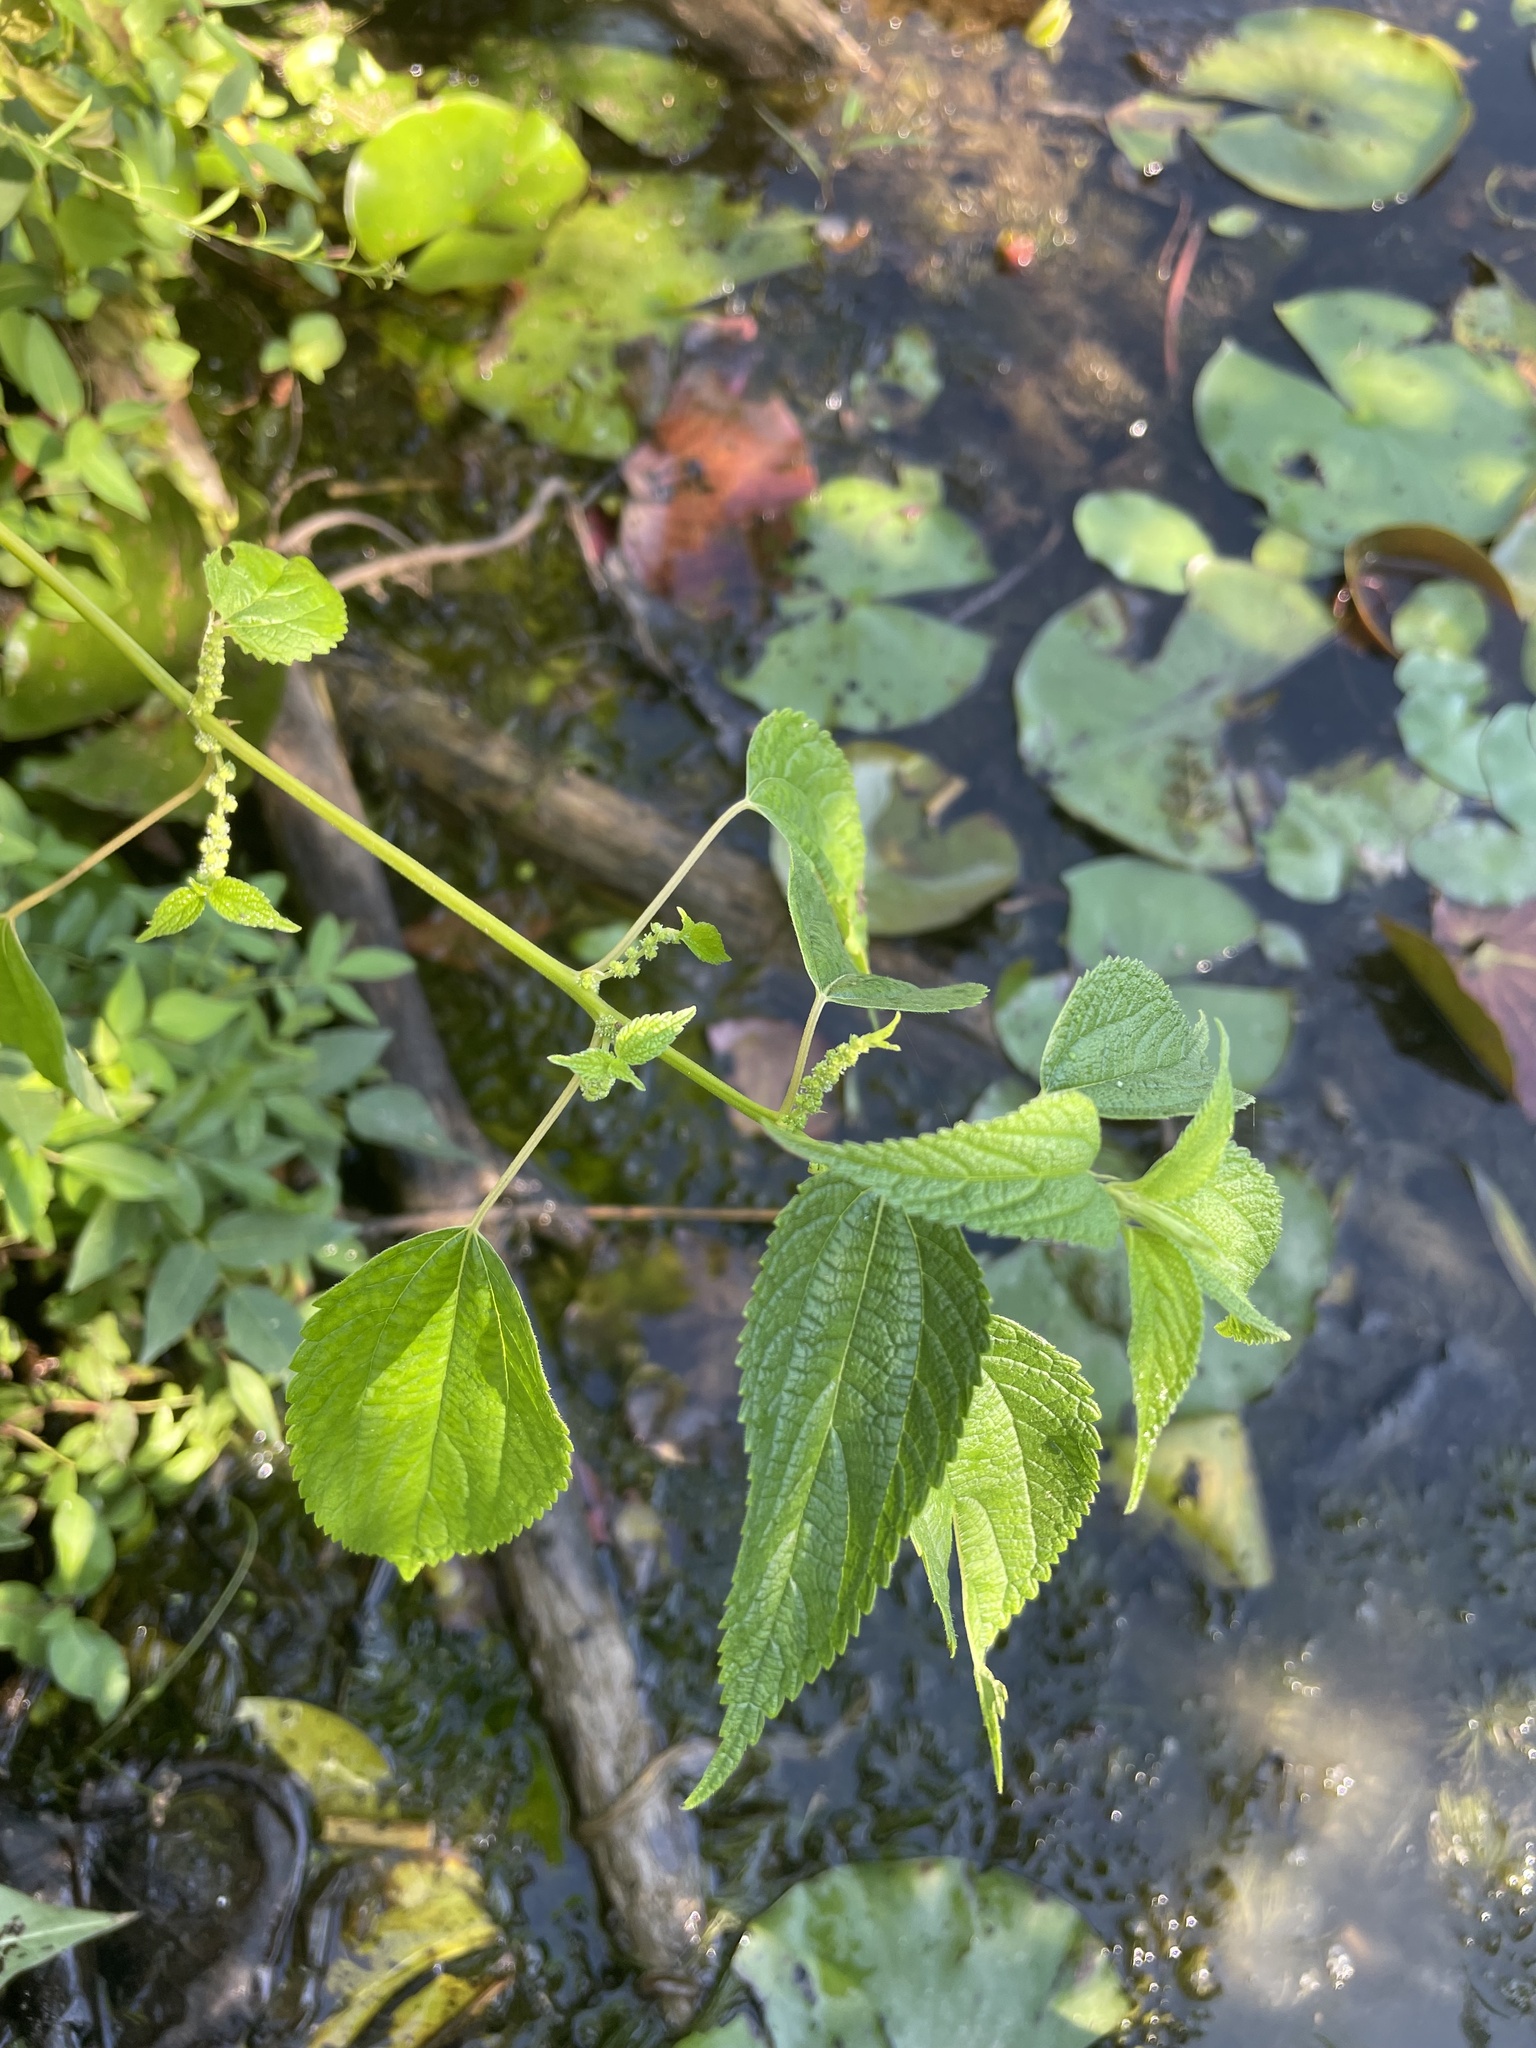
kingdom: Plantae
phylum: Tracheophyta
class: Magnoliopsida
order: Rosales
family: Urticaceae
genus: Boehmeria
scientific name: Boehmeria cylindrica
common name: Bog-hemp
